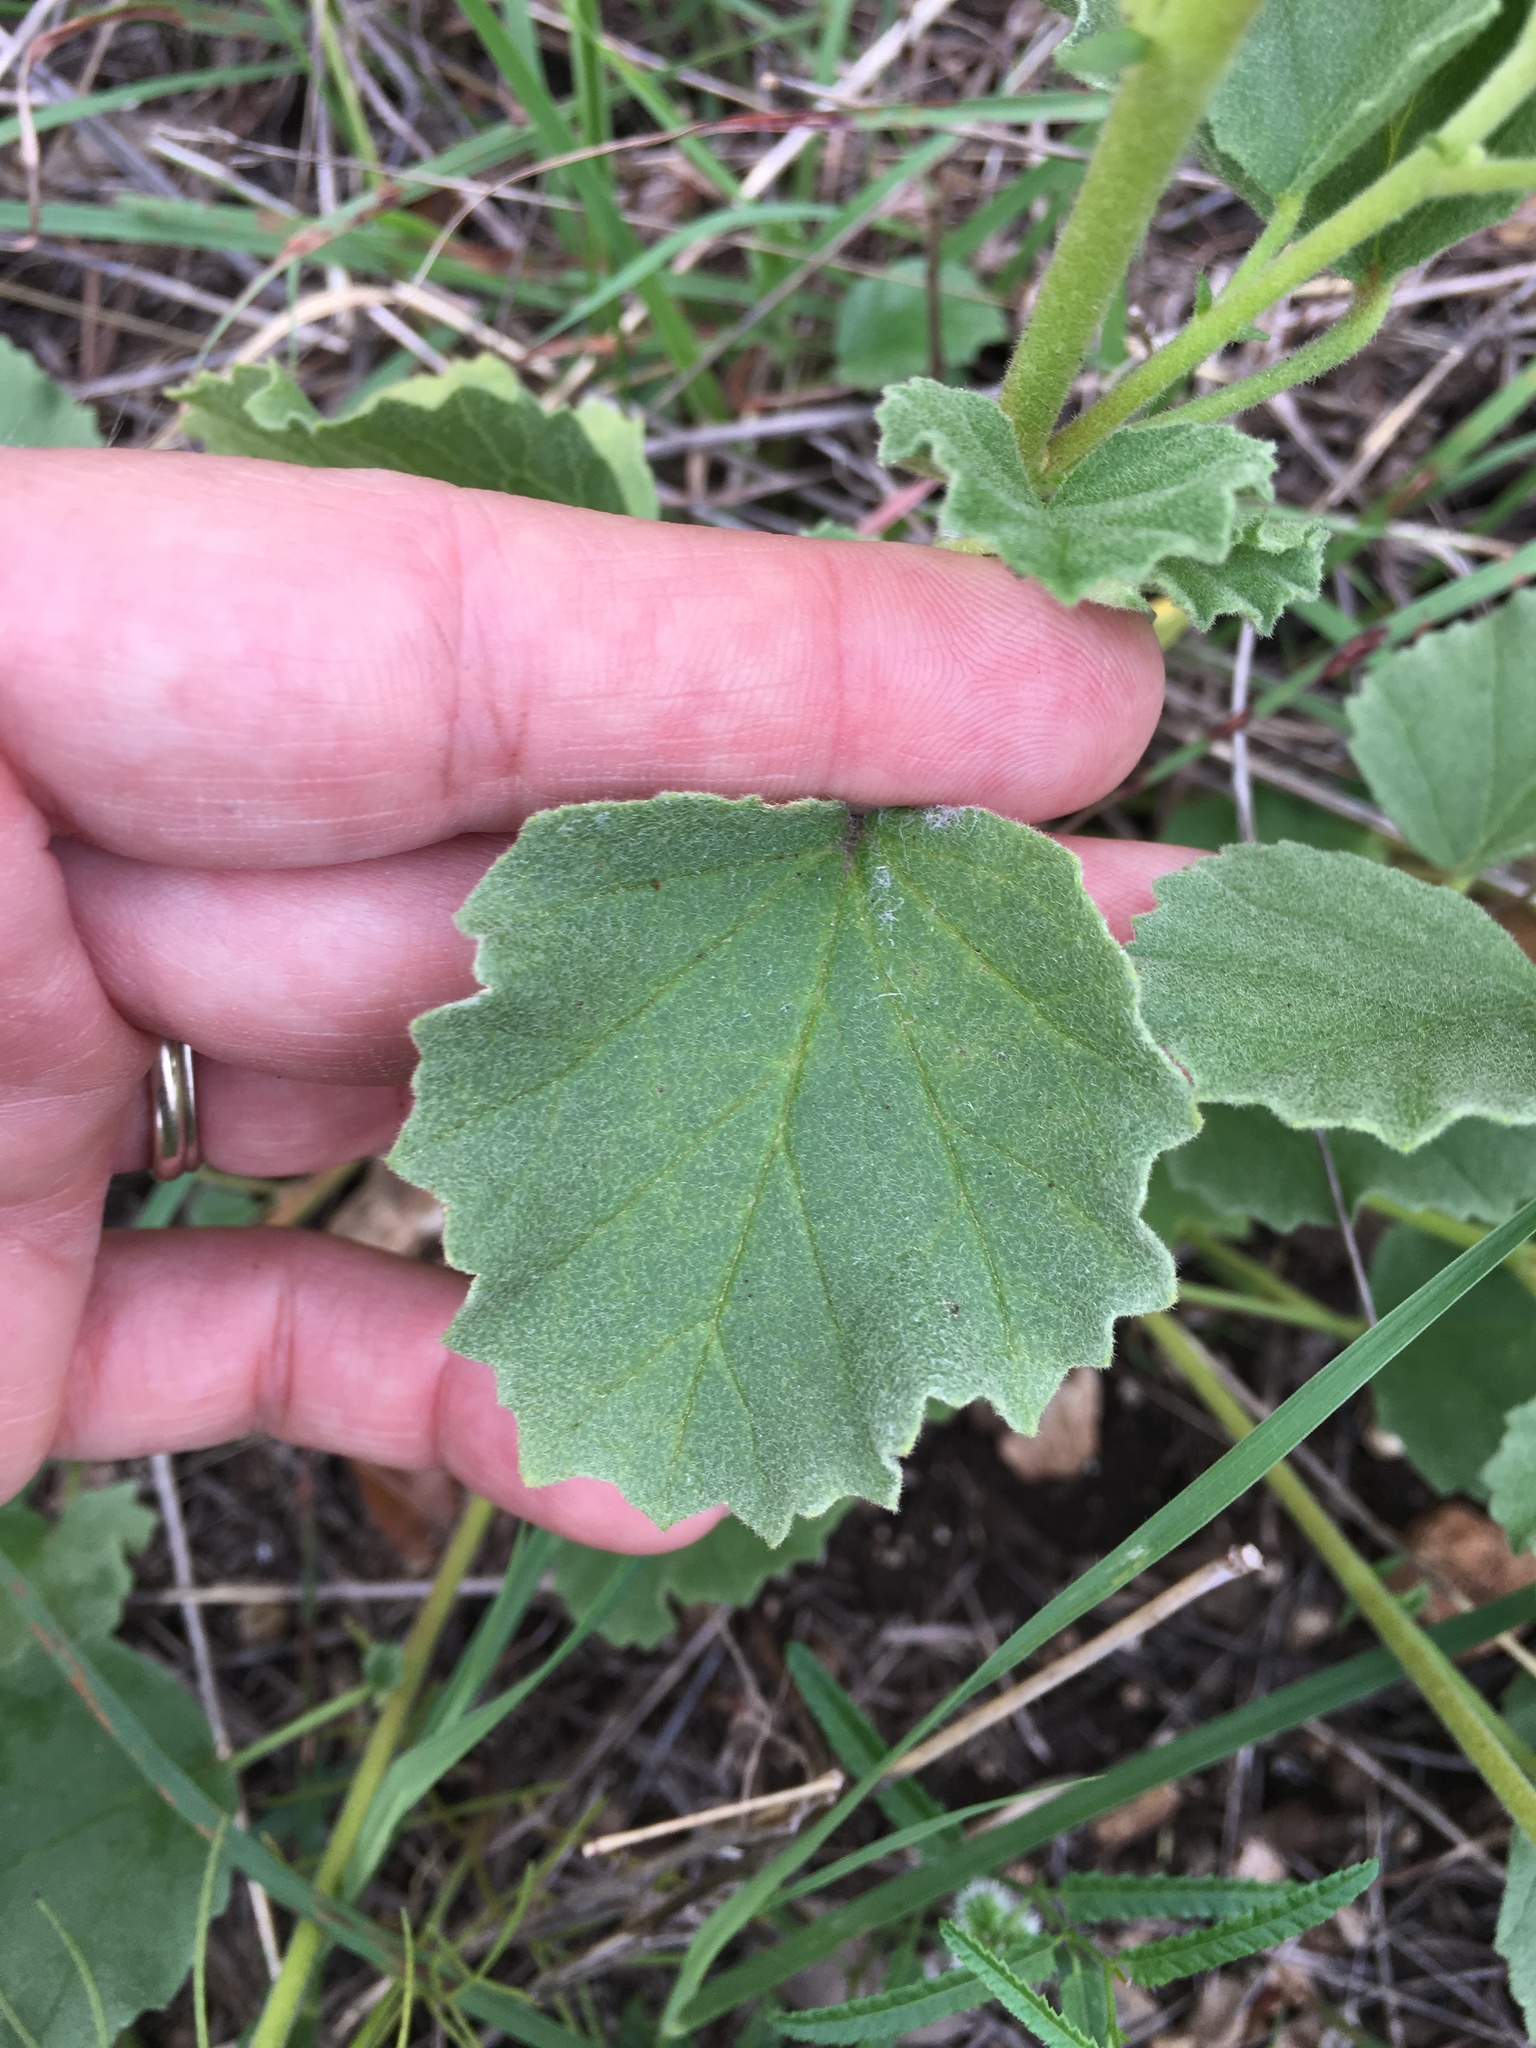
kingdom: Plantae
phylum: Tracheophyta
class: Magnoliopsida
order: Malvales
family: Malvaceae
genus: Hermannia
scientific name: Hermannia texana
